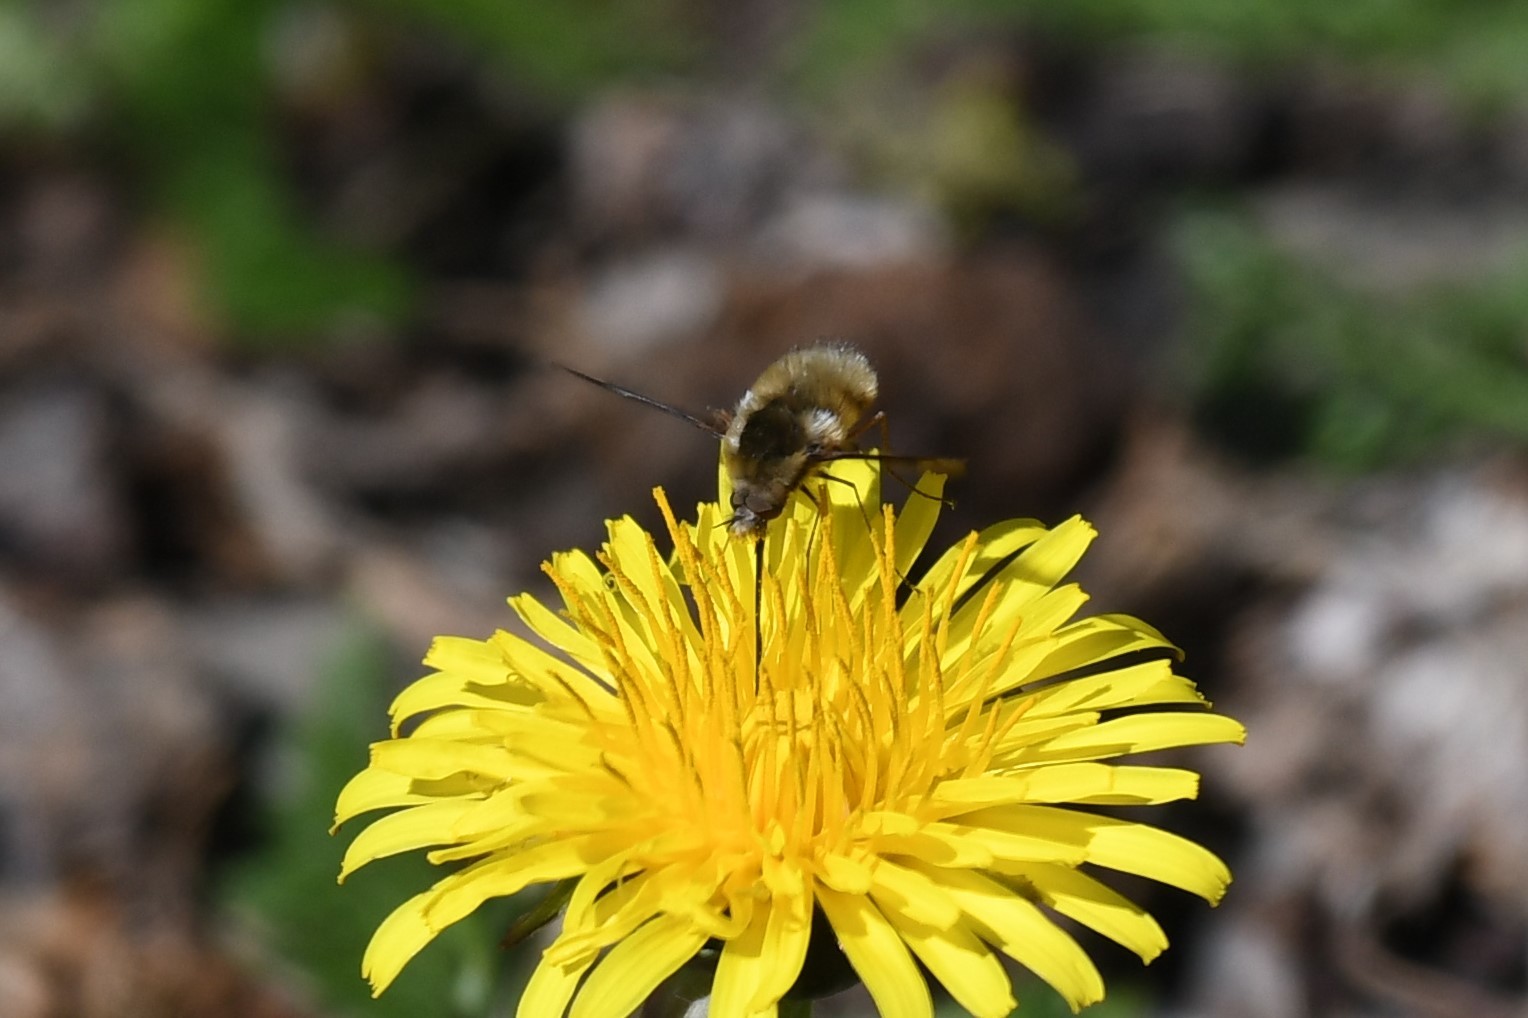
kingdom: Animalia
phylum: Arthropoda
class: Insecta
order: Diptera
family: Bombyliidae
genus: Bombylius
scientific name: Bombylius major
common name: Bee fly
